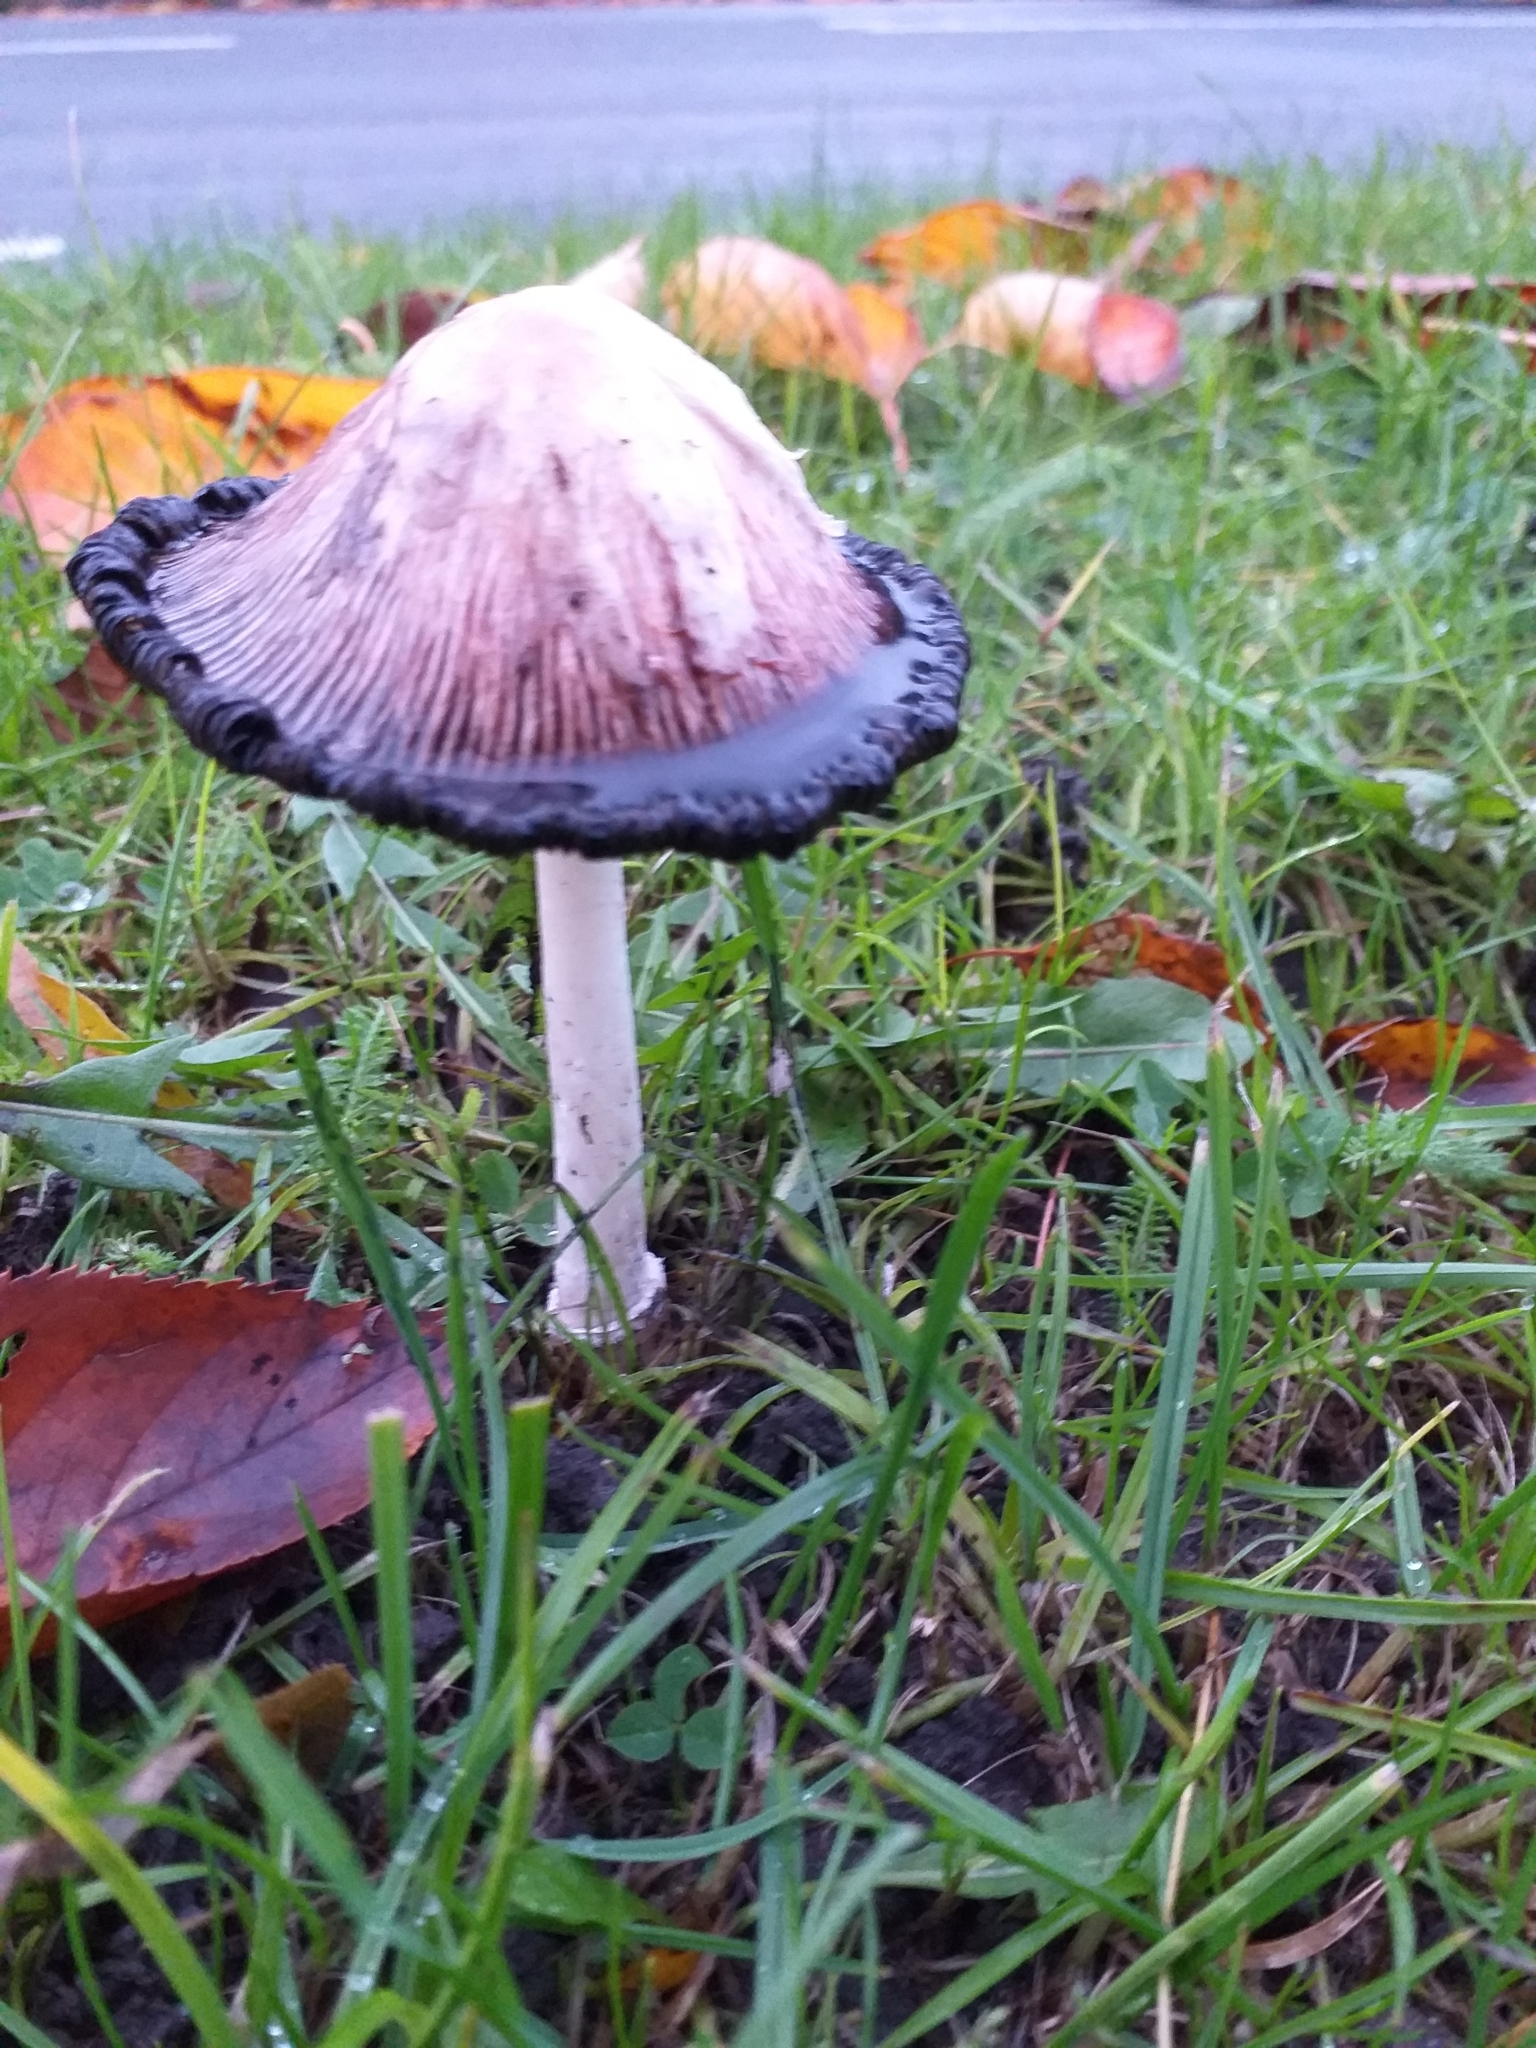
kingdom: Fungi
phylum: Basidiomycota
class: Agaricomycetes
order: Agaricales
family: Agaricaceae
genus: Coprinus
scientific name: Coprinus comatus
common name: Lawyer's wig
